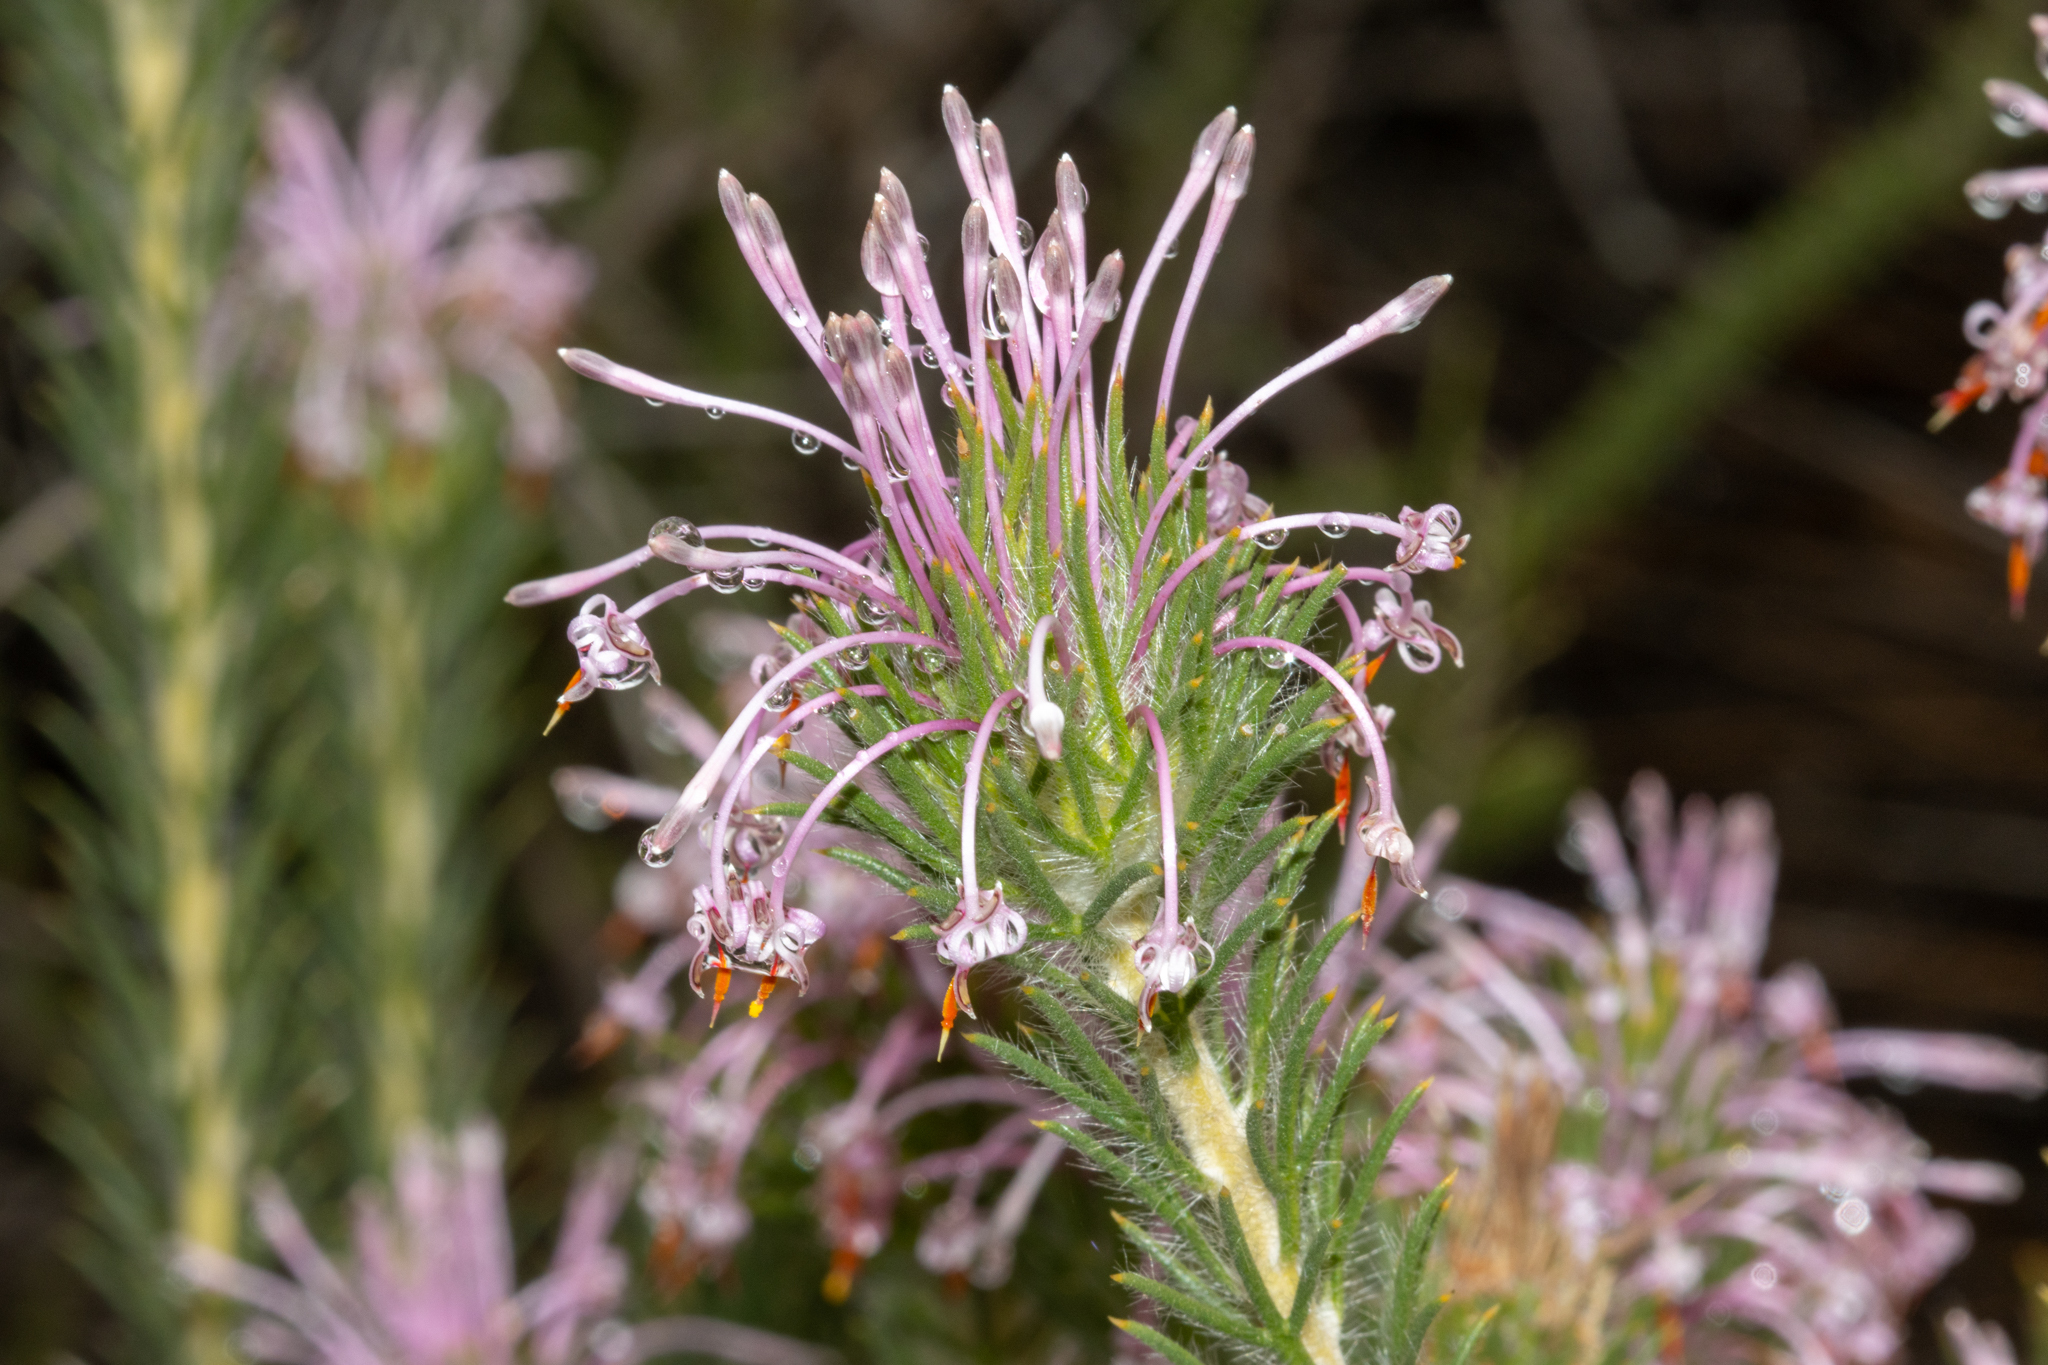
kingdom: Plantae
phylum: Tracheophyta
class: Magnoliopsida
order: Proteales
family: Proteaceae
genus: Isopogon
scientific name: Isopogon adenanthoides
